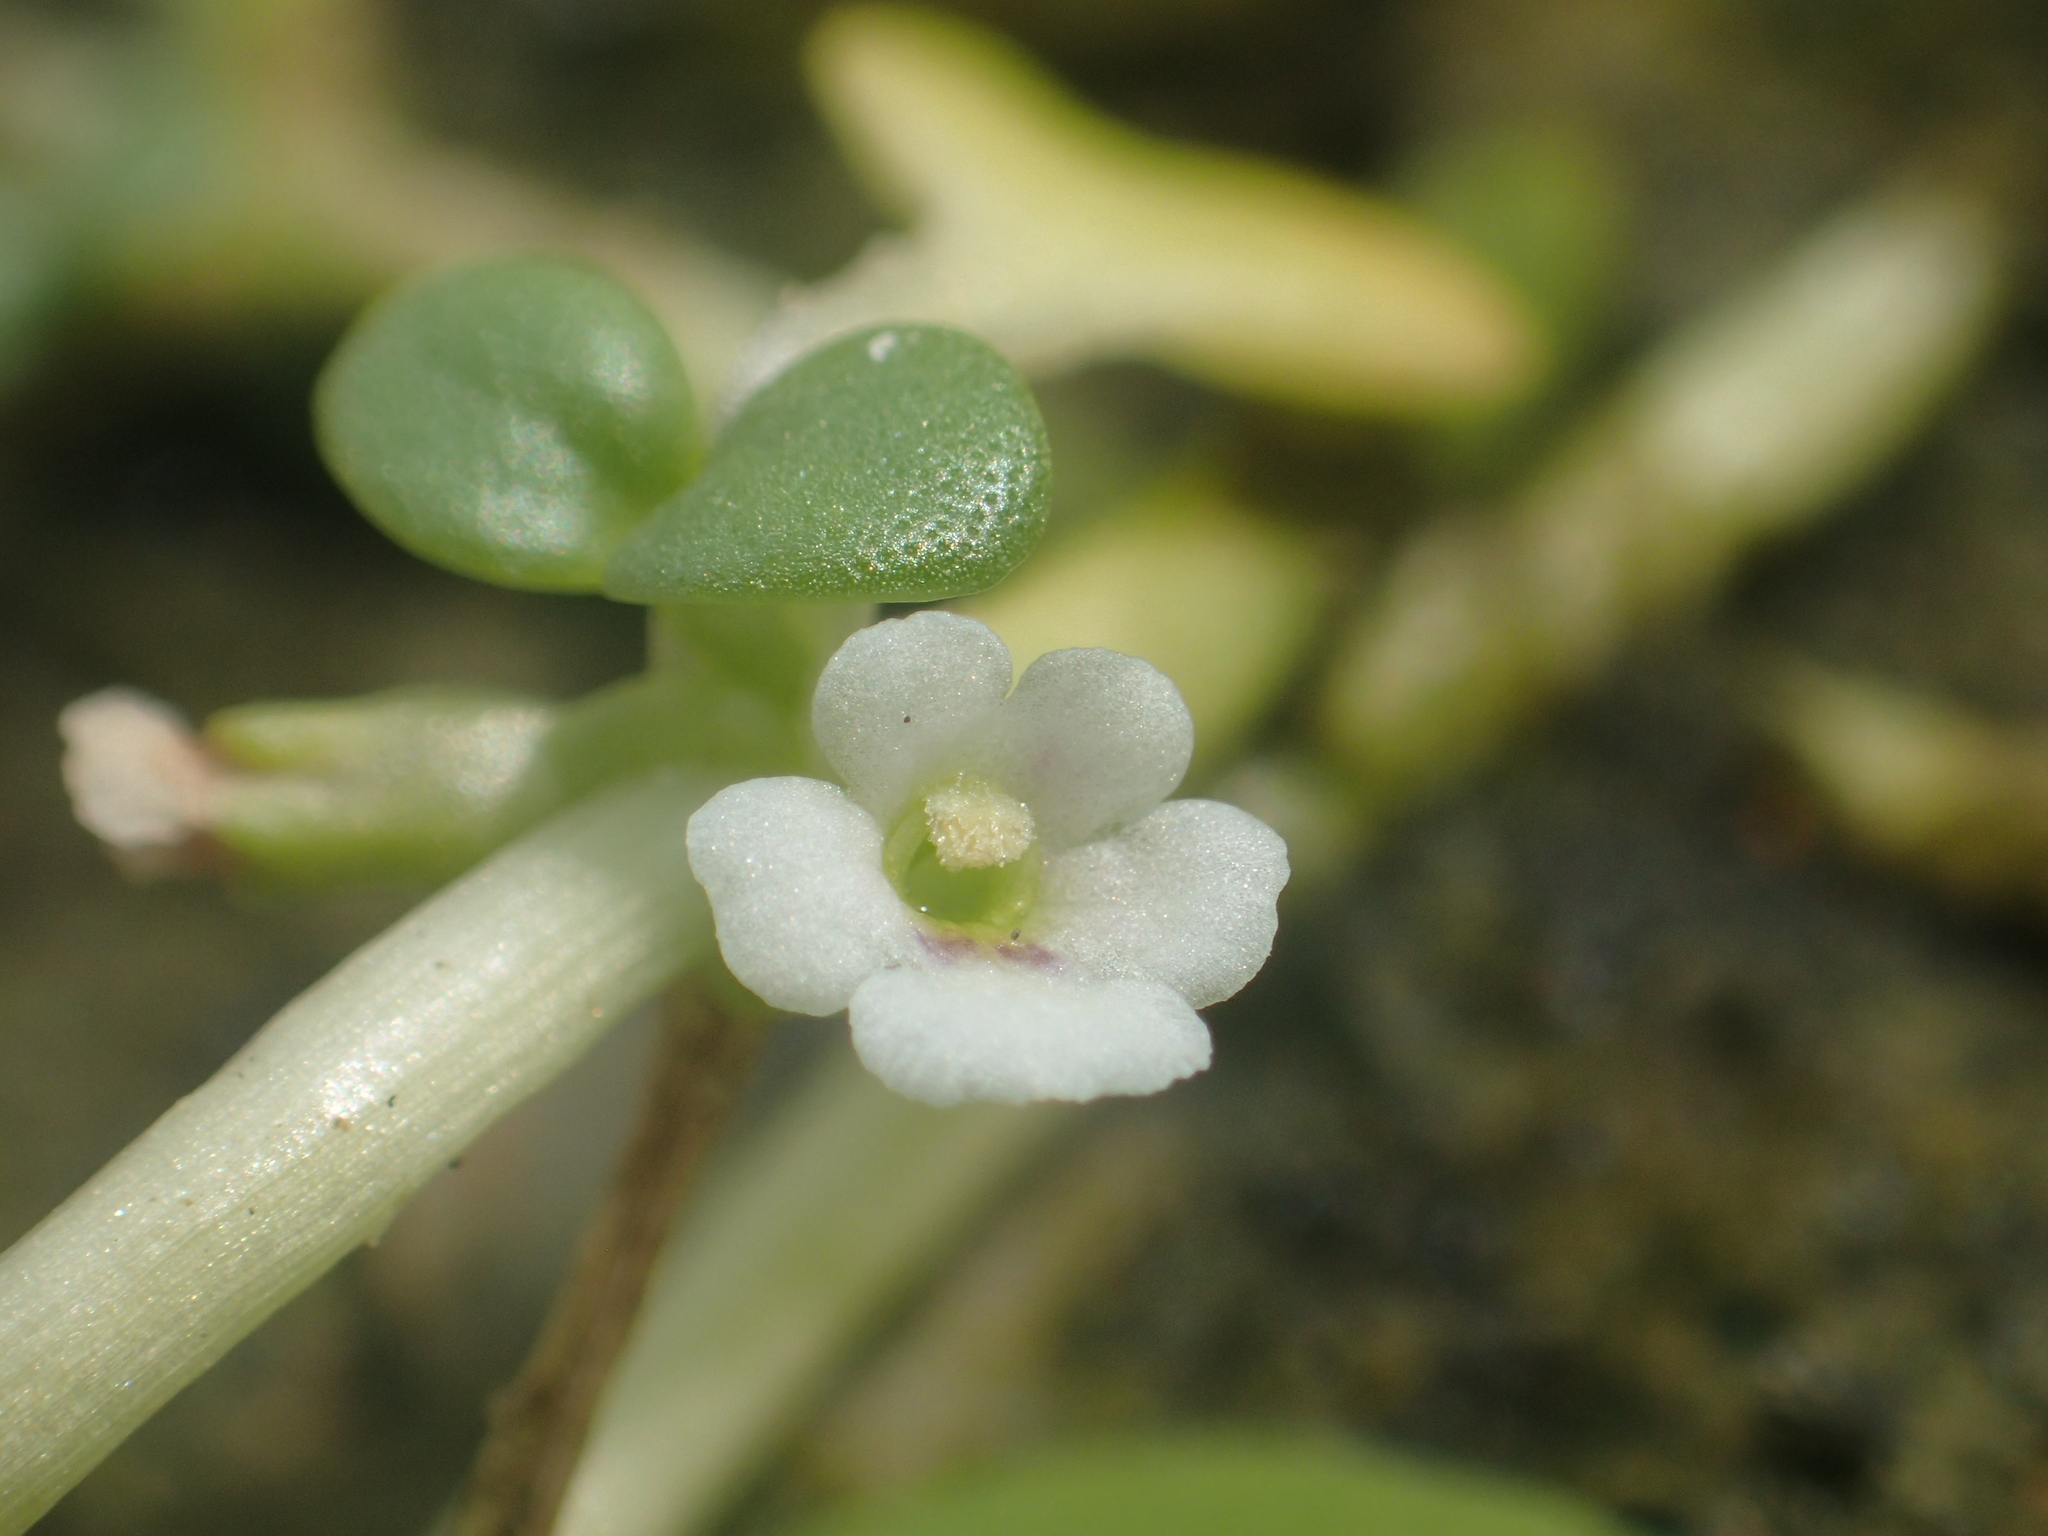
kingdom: Plantae
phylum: Tracheophyta
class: Magnoliopsida
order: Lamiales
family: Phrymaceae
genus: Peplidium
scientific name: Peplidium maritimum
